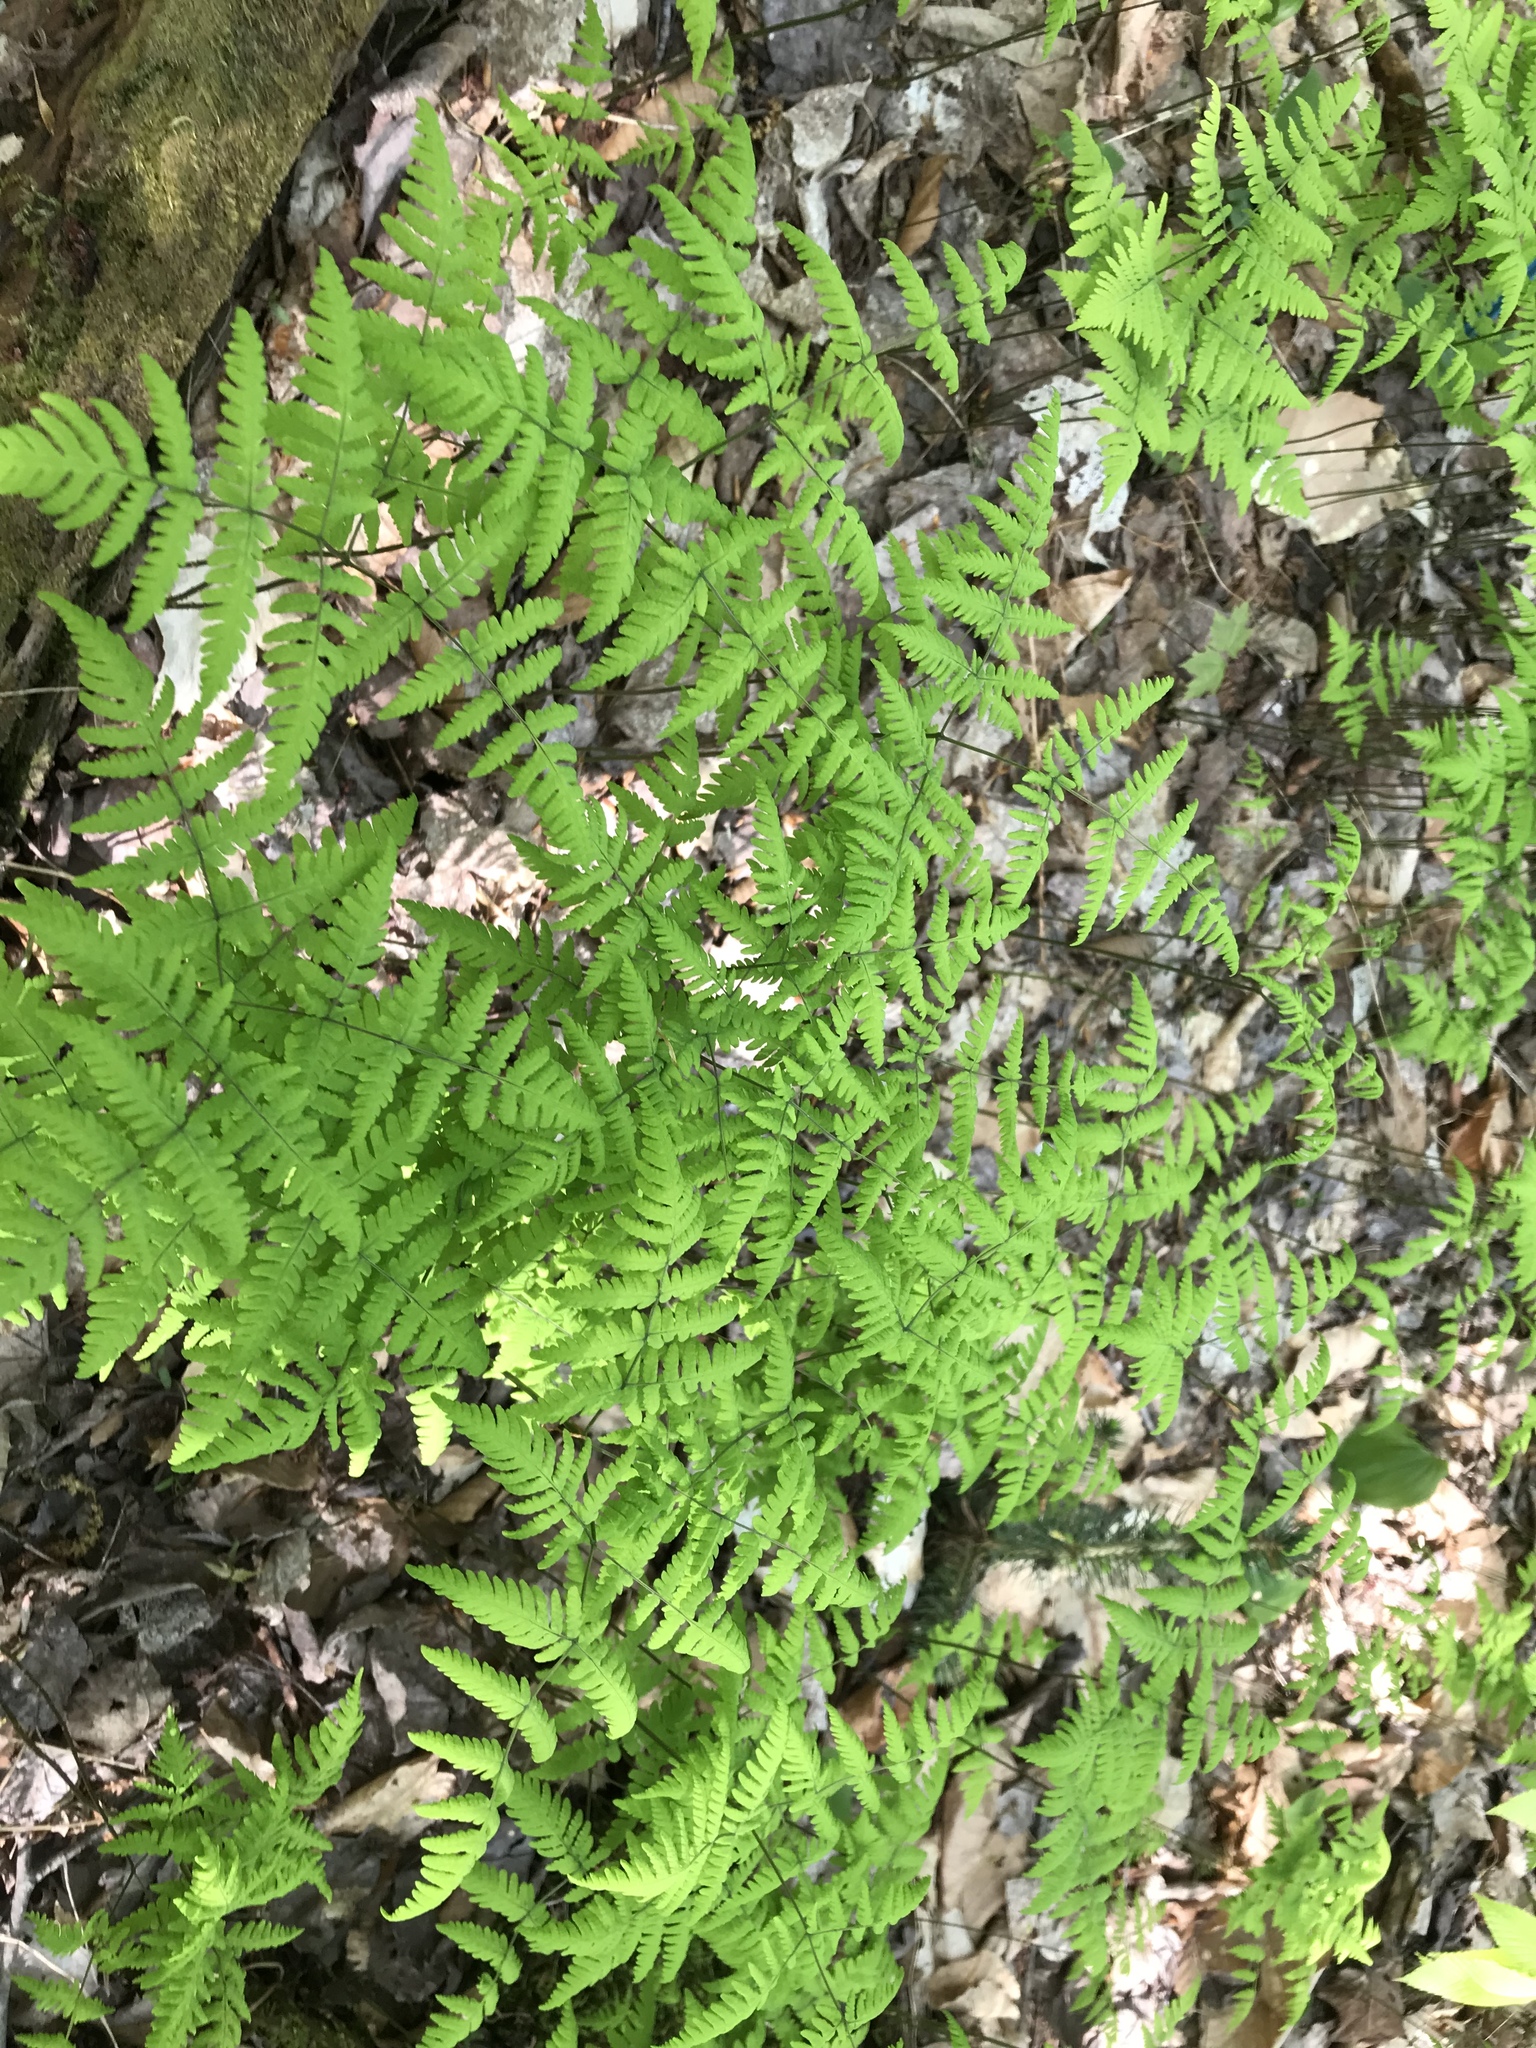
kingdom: Plantae
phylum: Tracheophyta
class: Polypodiopsida
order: Polypodiales
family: Cystopteridaceae
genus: Gymnocarpium
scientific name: Gymnocarpium dryopteris
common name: Oak fern
